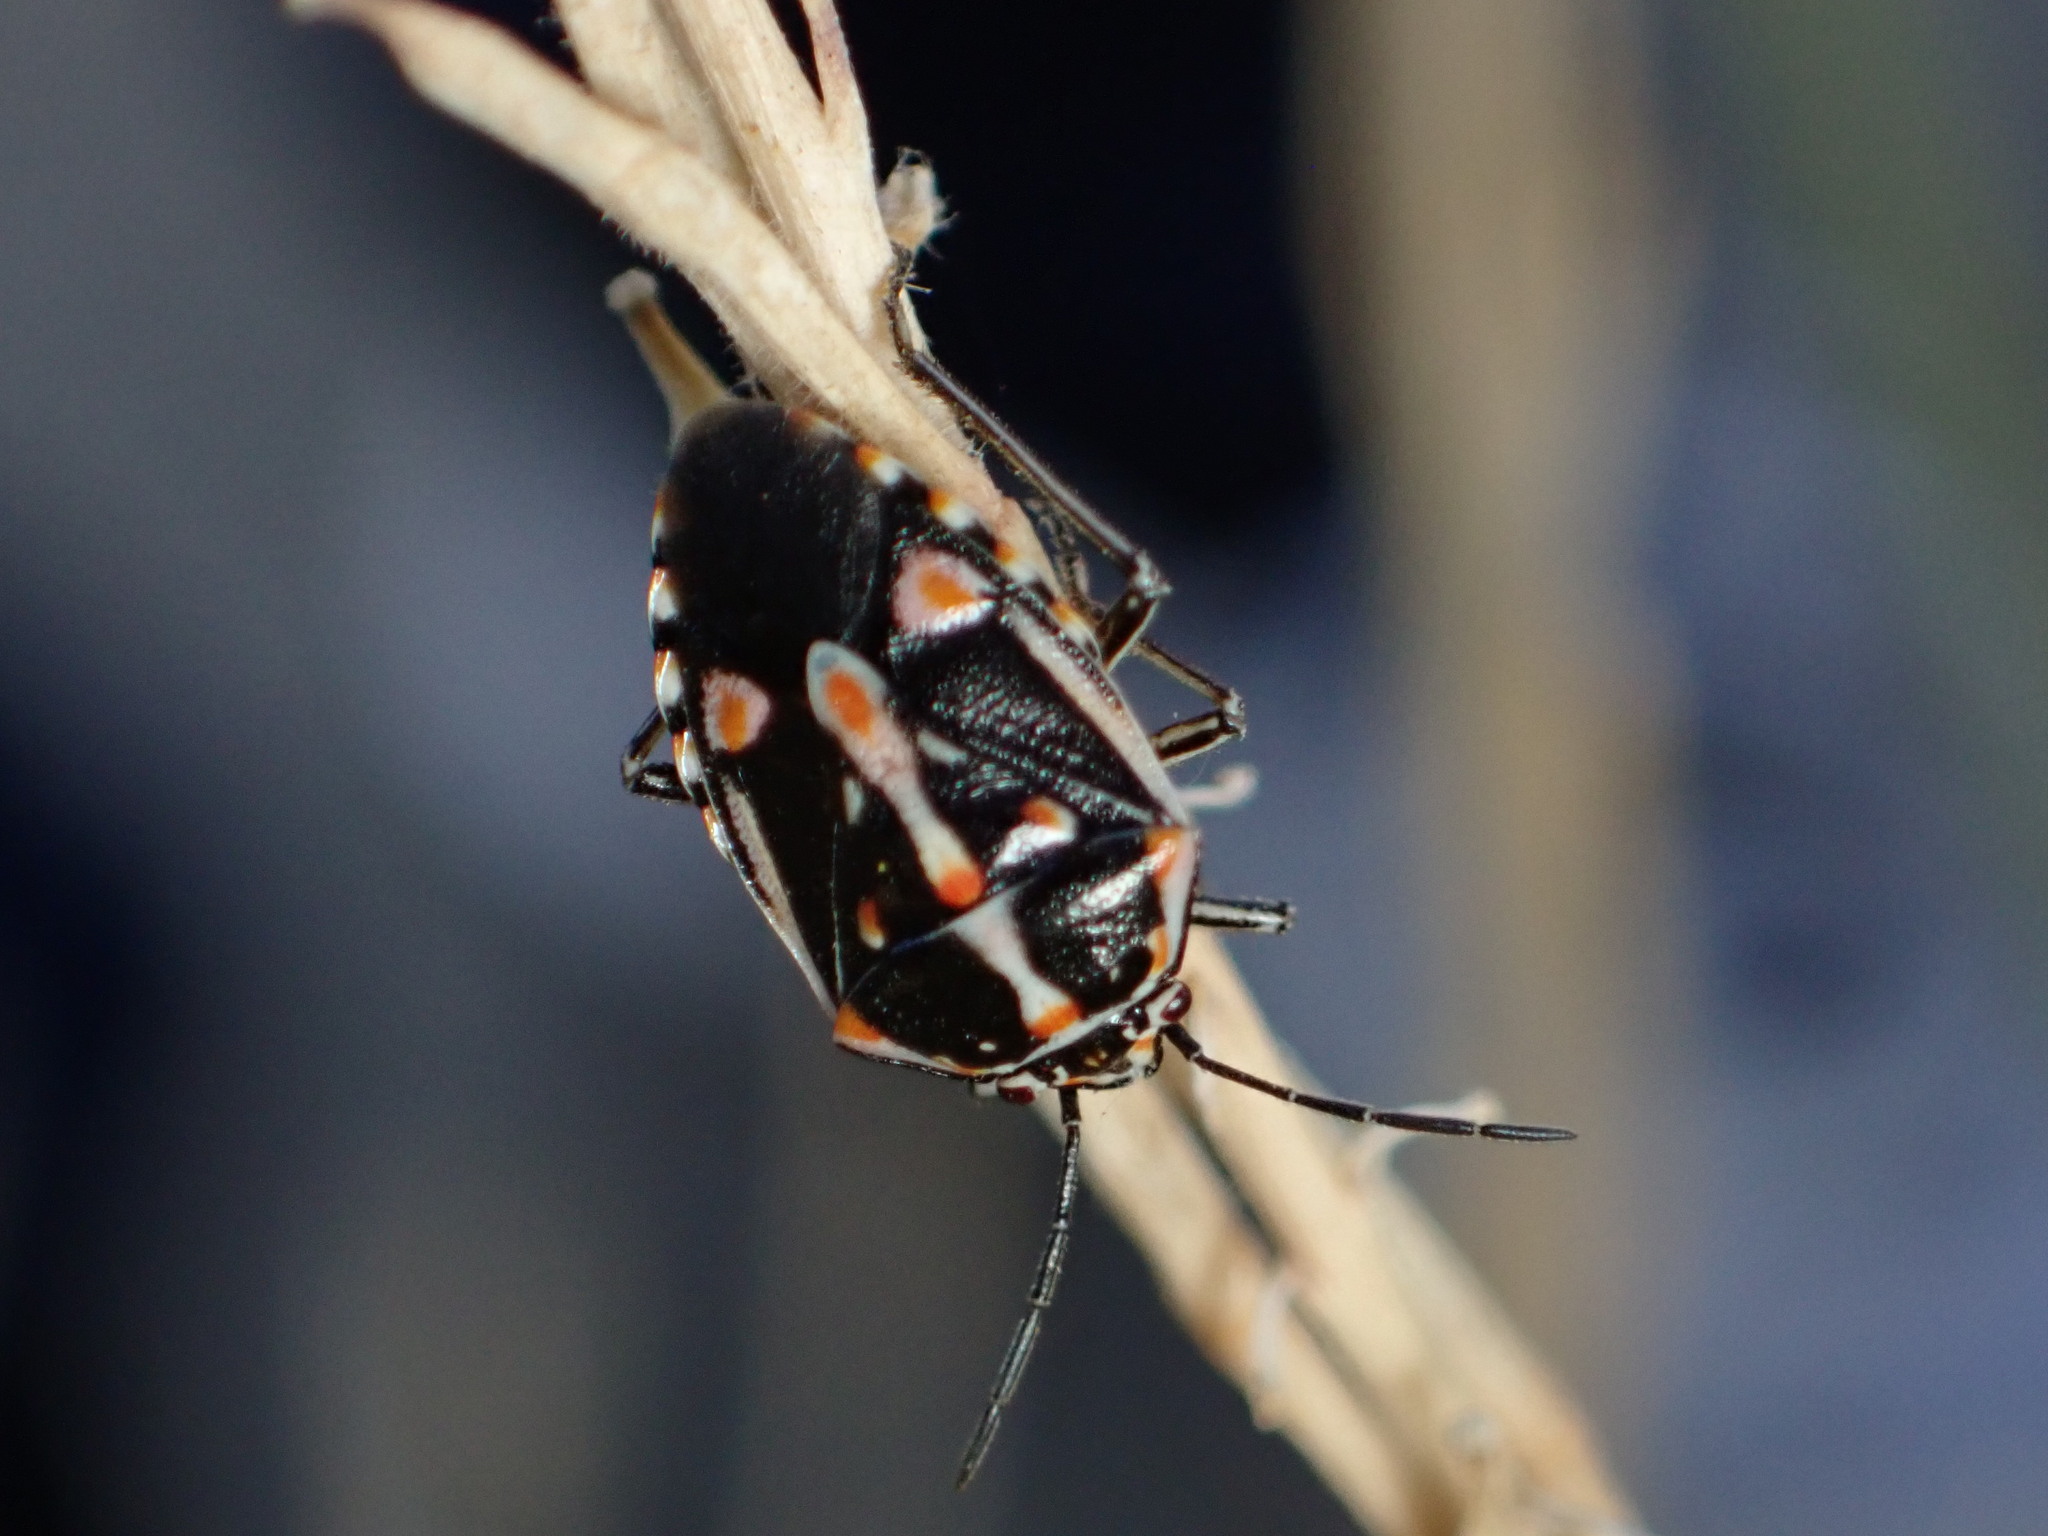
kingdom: Animalia
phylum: Arthropoda
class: Insecta
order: Hemiptera
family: Pentatomidae
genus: Bagrada
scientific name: Bagrada hilaris
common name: Bagrada bug
